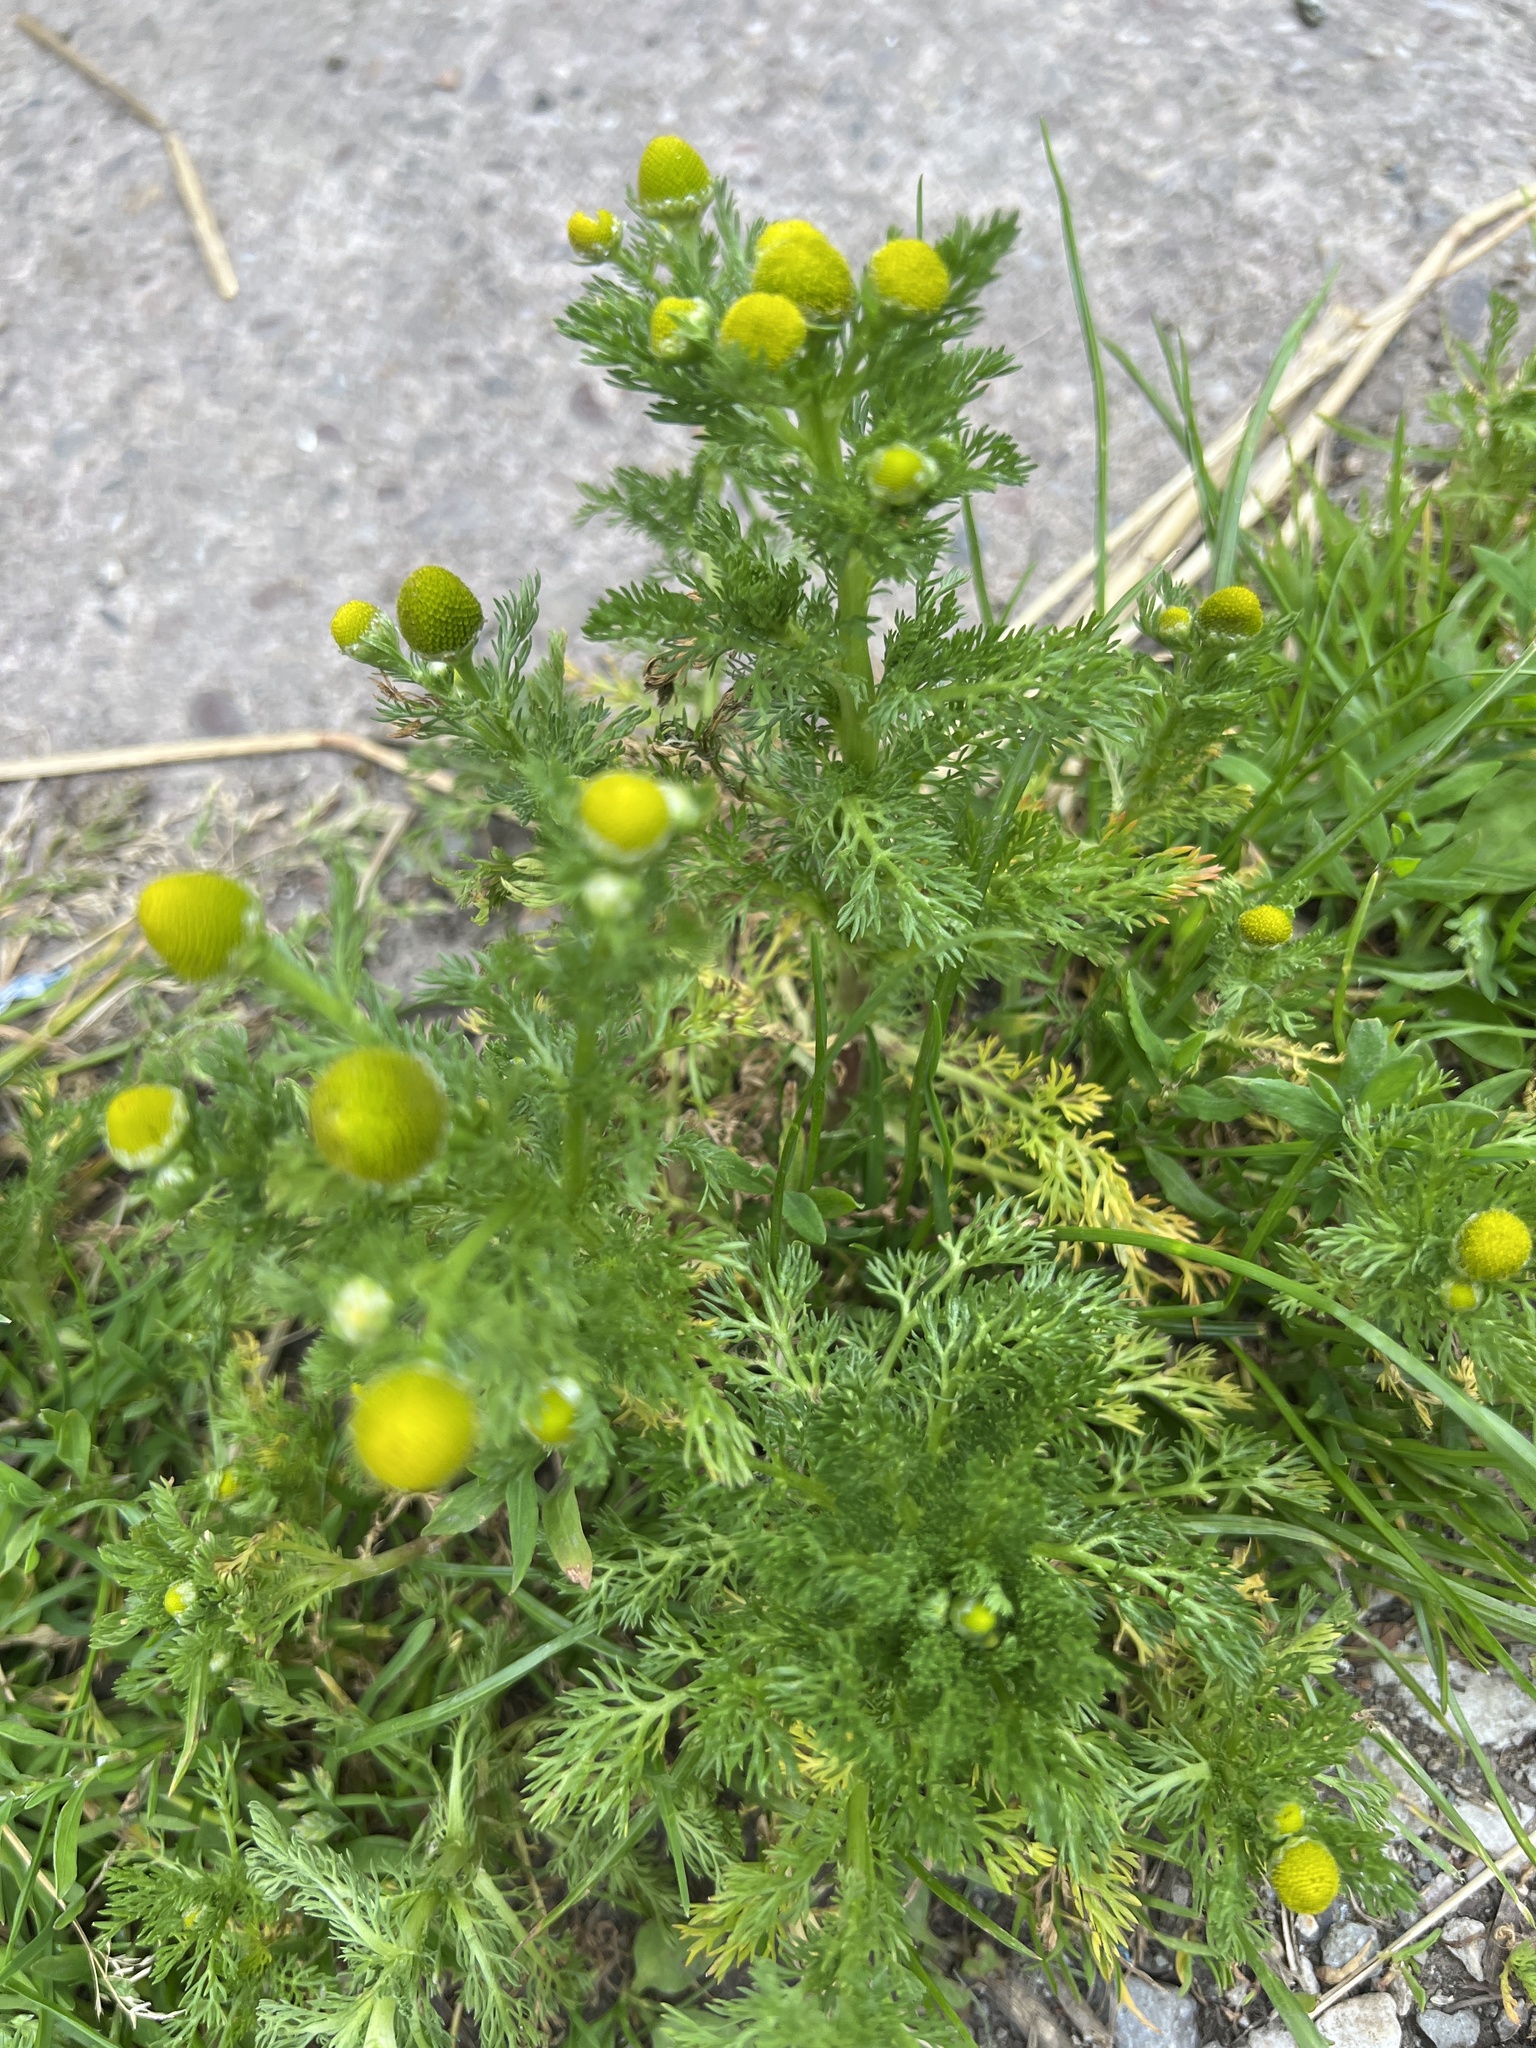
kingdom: Plantae
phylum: Tracheophyta
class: Magnoliopsida
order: Asterales
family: Asteraceae
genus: Matricaria
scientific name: Matricaria discoidea
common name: Disc mayweed
